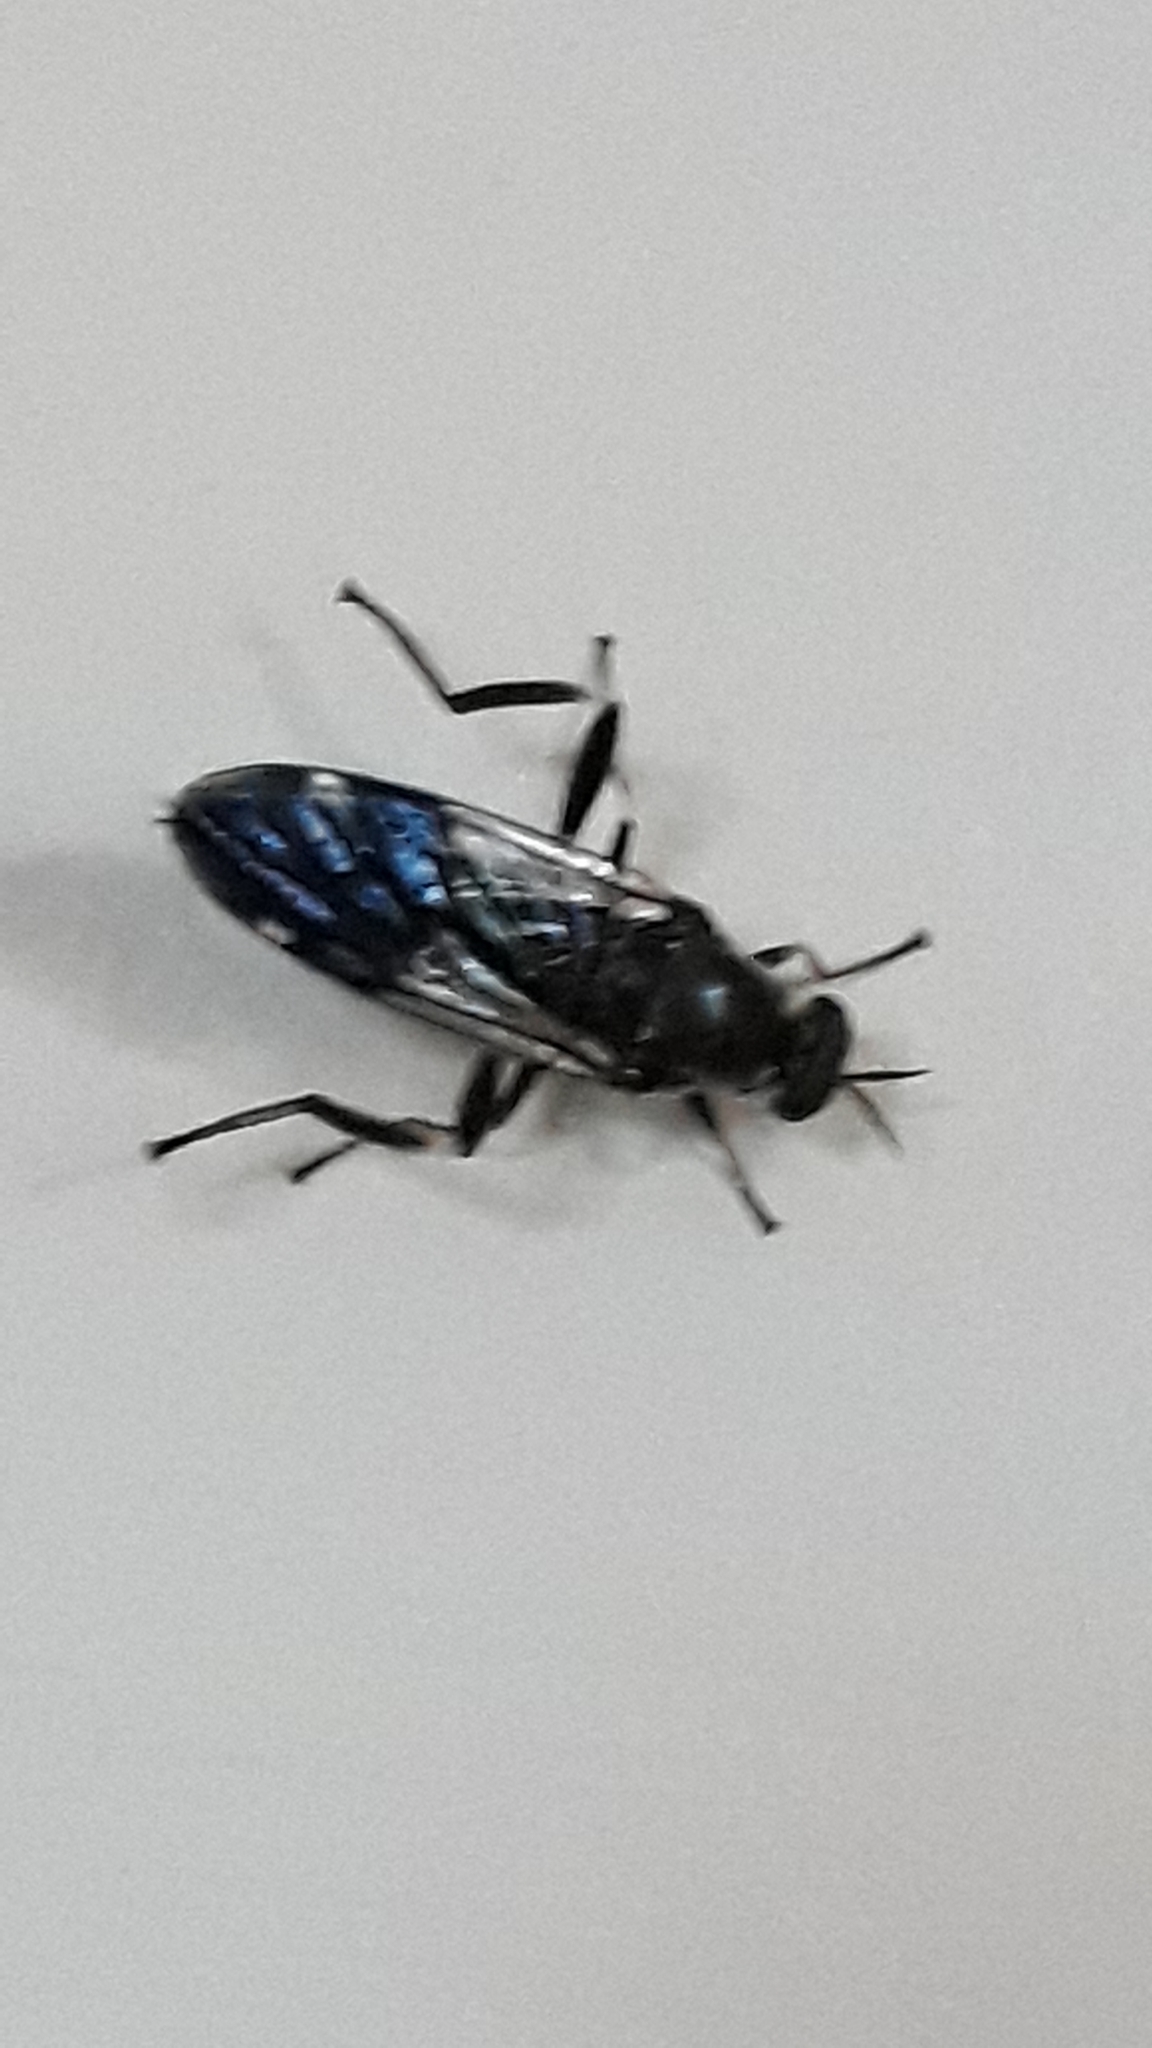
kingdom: Animalia
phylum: Arthropoda
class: Insecta
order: Diptera
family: Stratiomyidae
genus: Exaireta
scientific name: Exaireta spinigera
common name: Blue soldier fly
